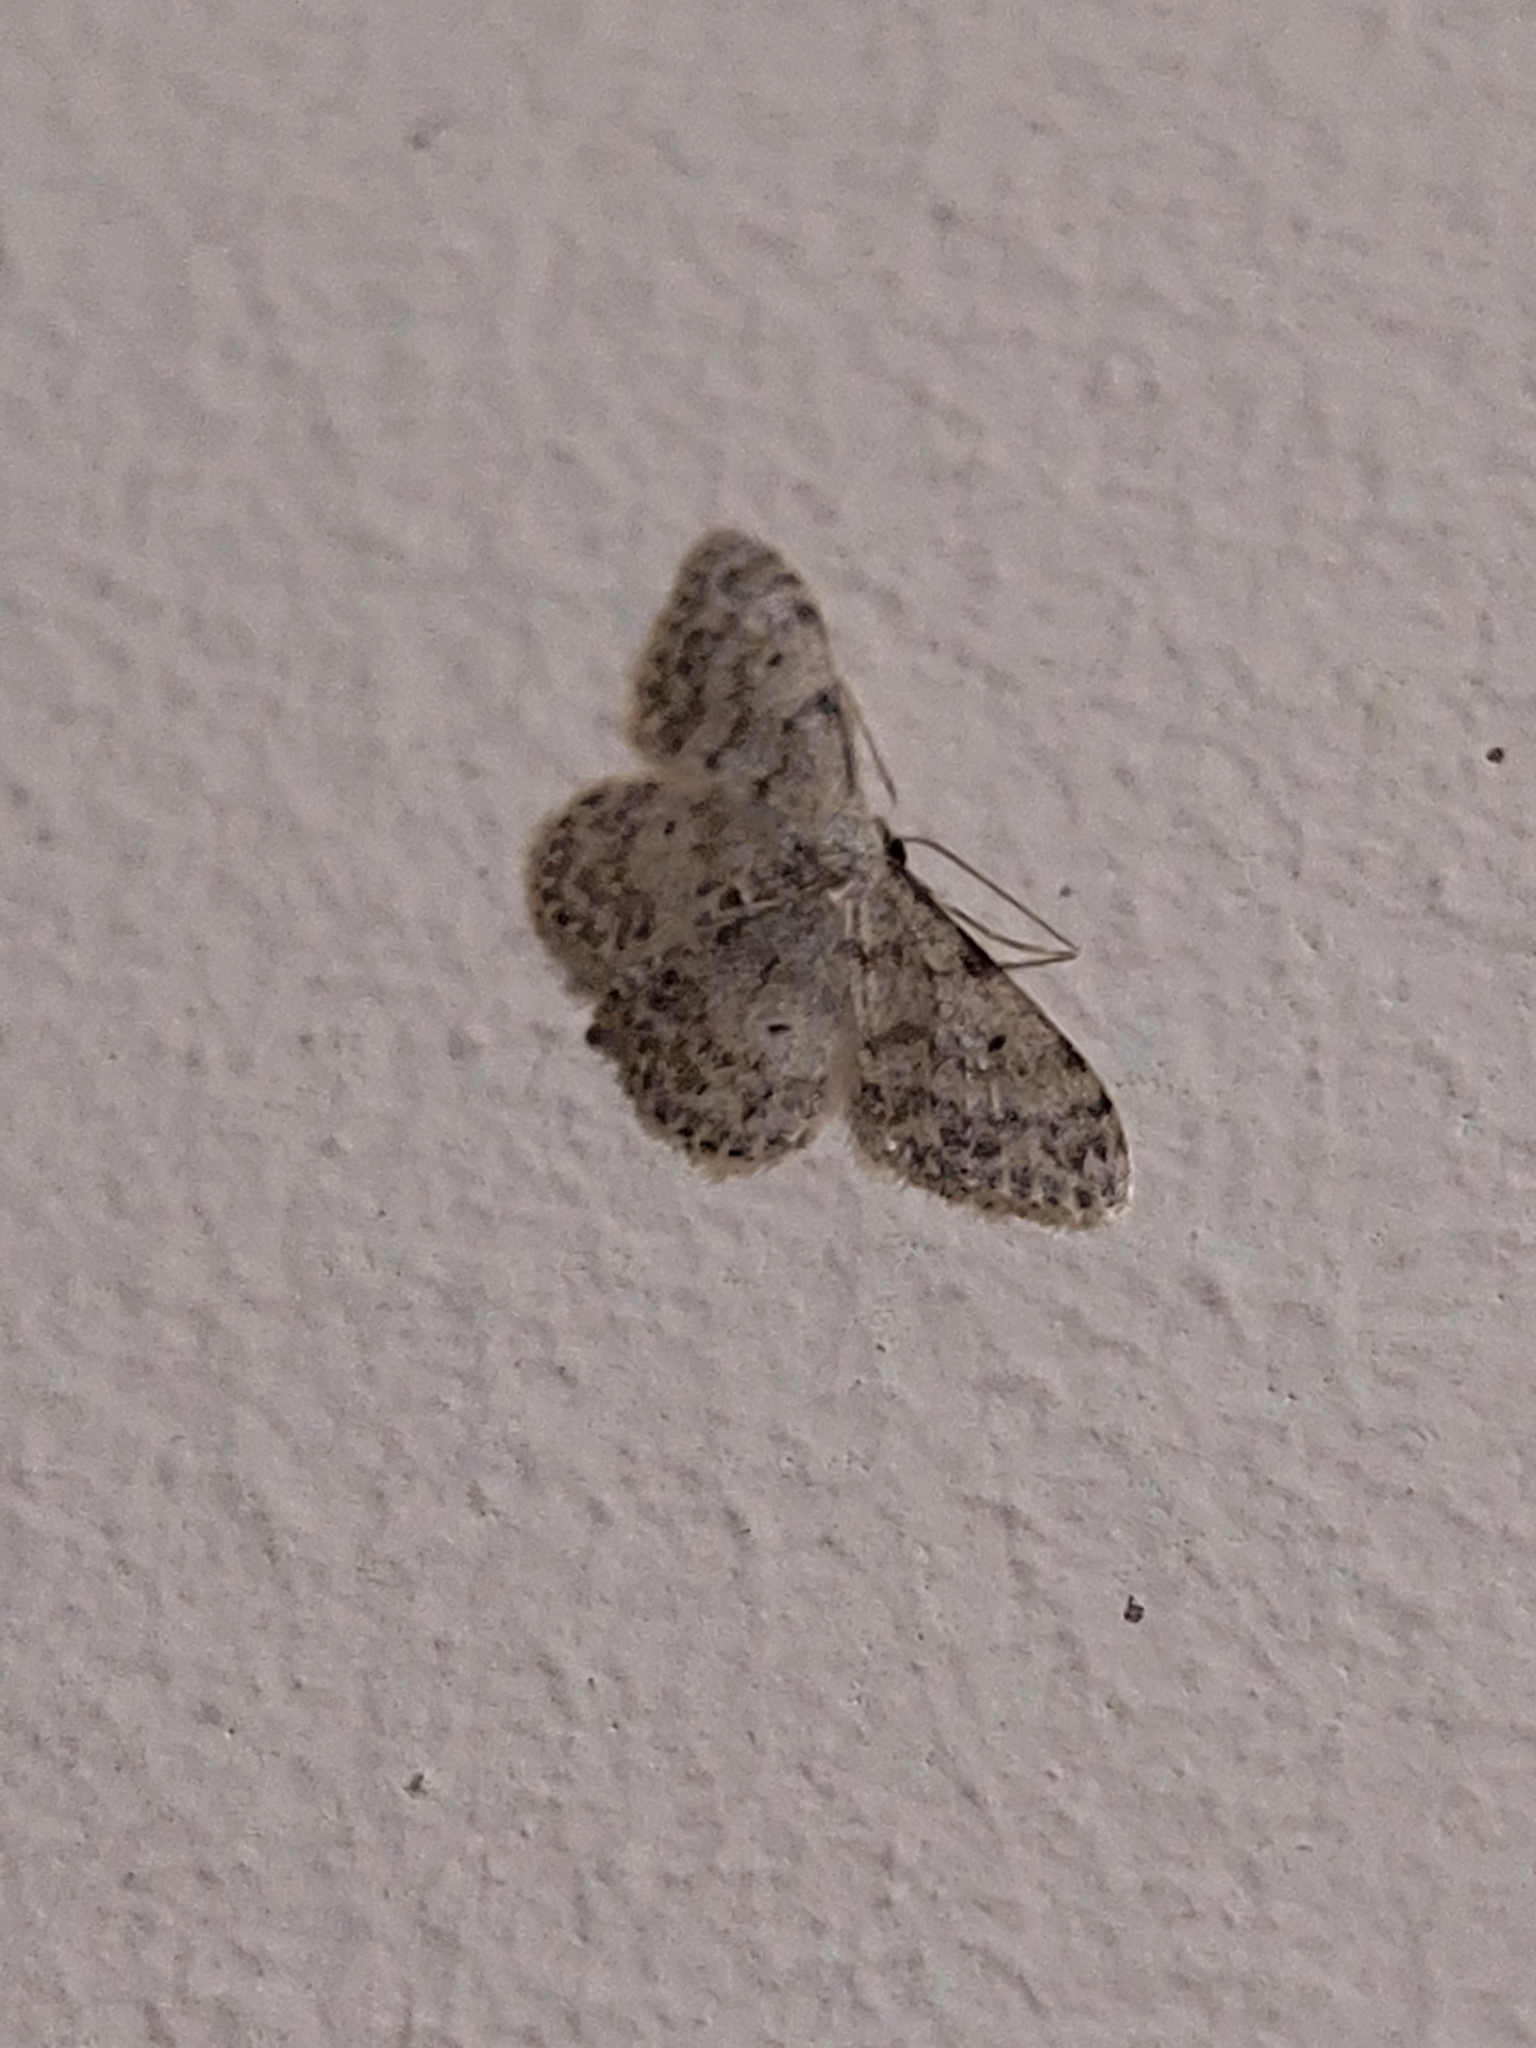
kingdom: Animalia
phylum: Arthropoda
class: Insecta
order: Lepidoptera
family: Geometridae
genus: Idaea
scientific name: Idaea camparia
